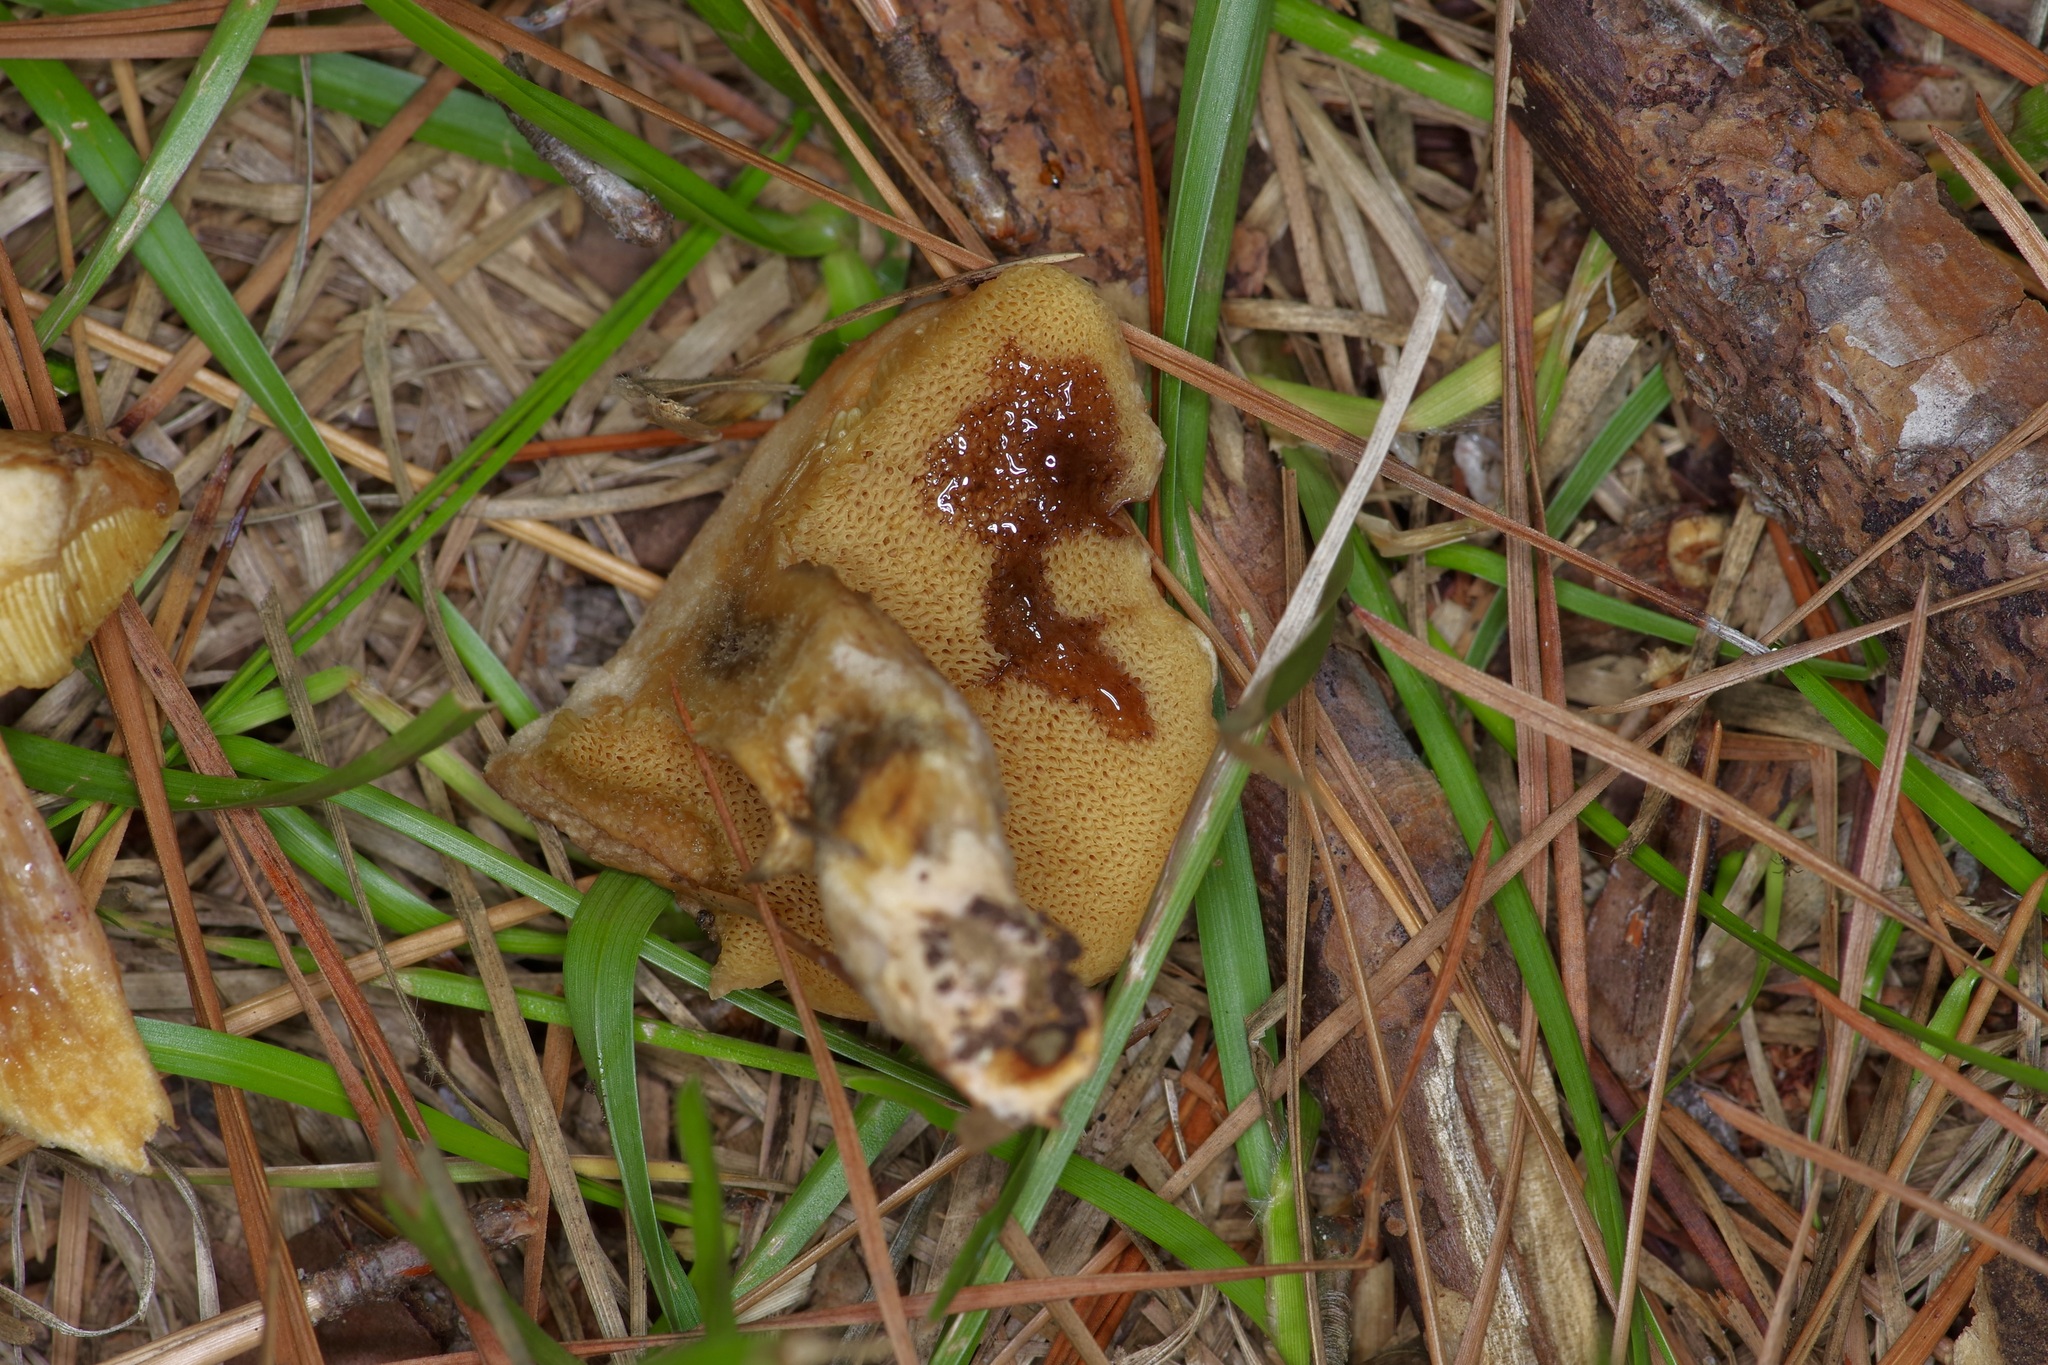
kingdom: Fungi
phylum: Basidiomycota
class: Agaricomycetes
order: Boletales
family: Suillaceae
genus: Suillus
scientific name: Suillus decipiens
